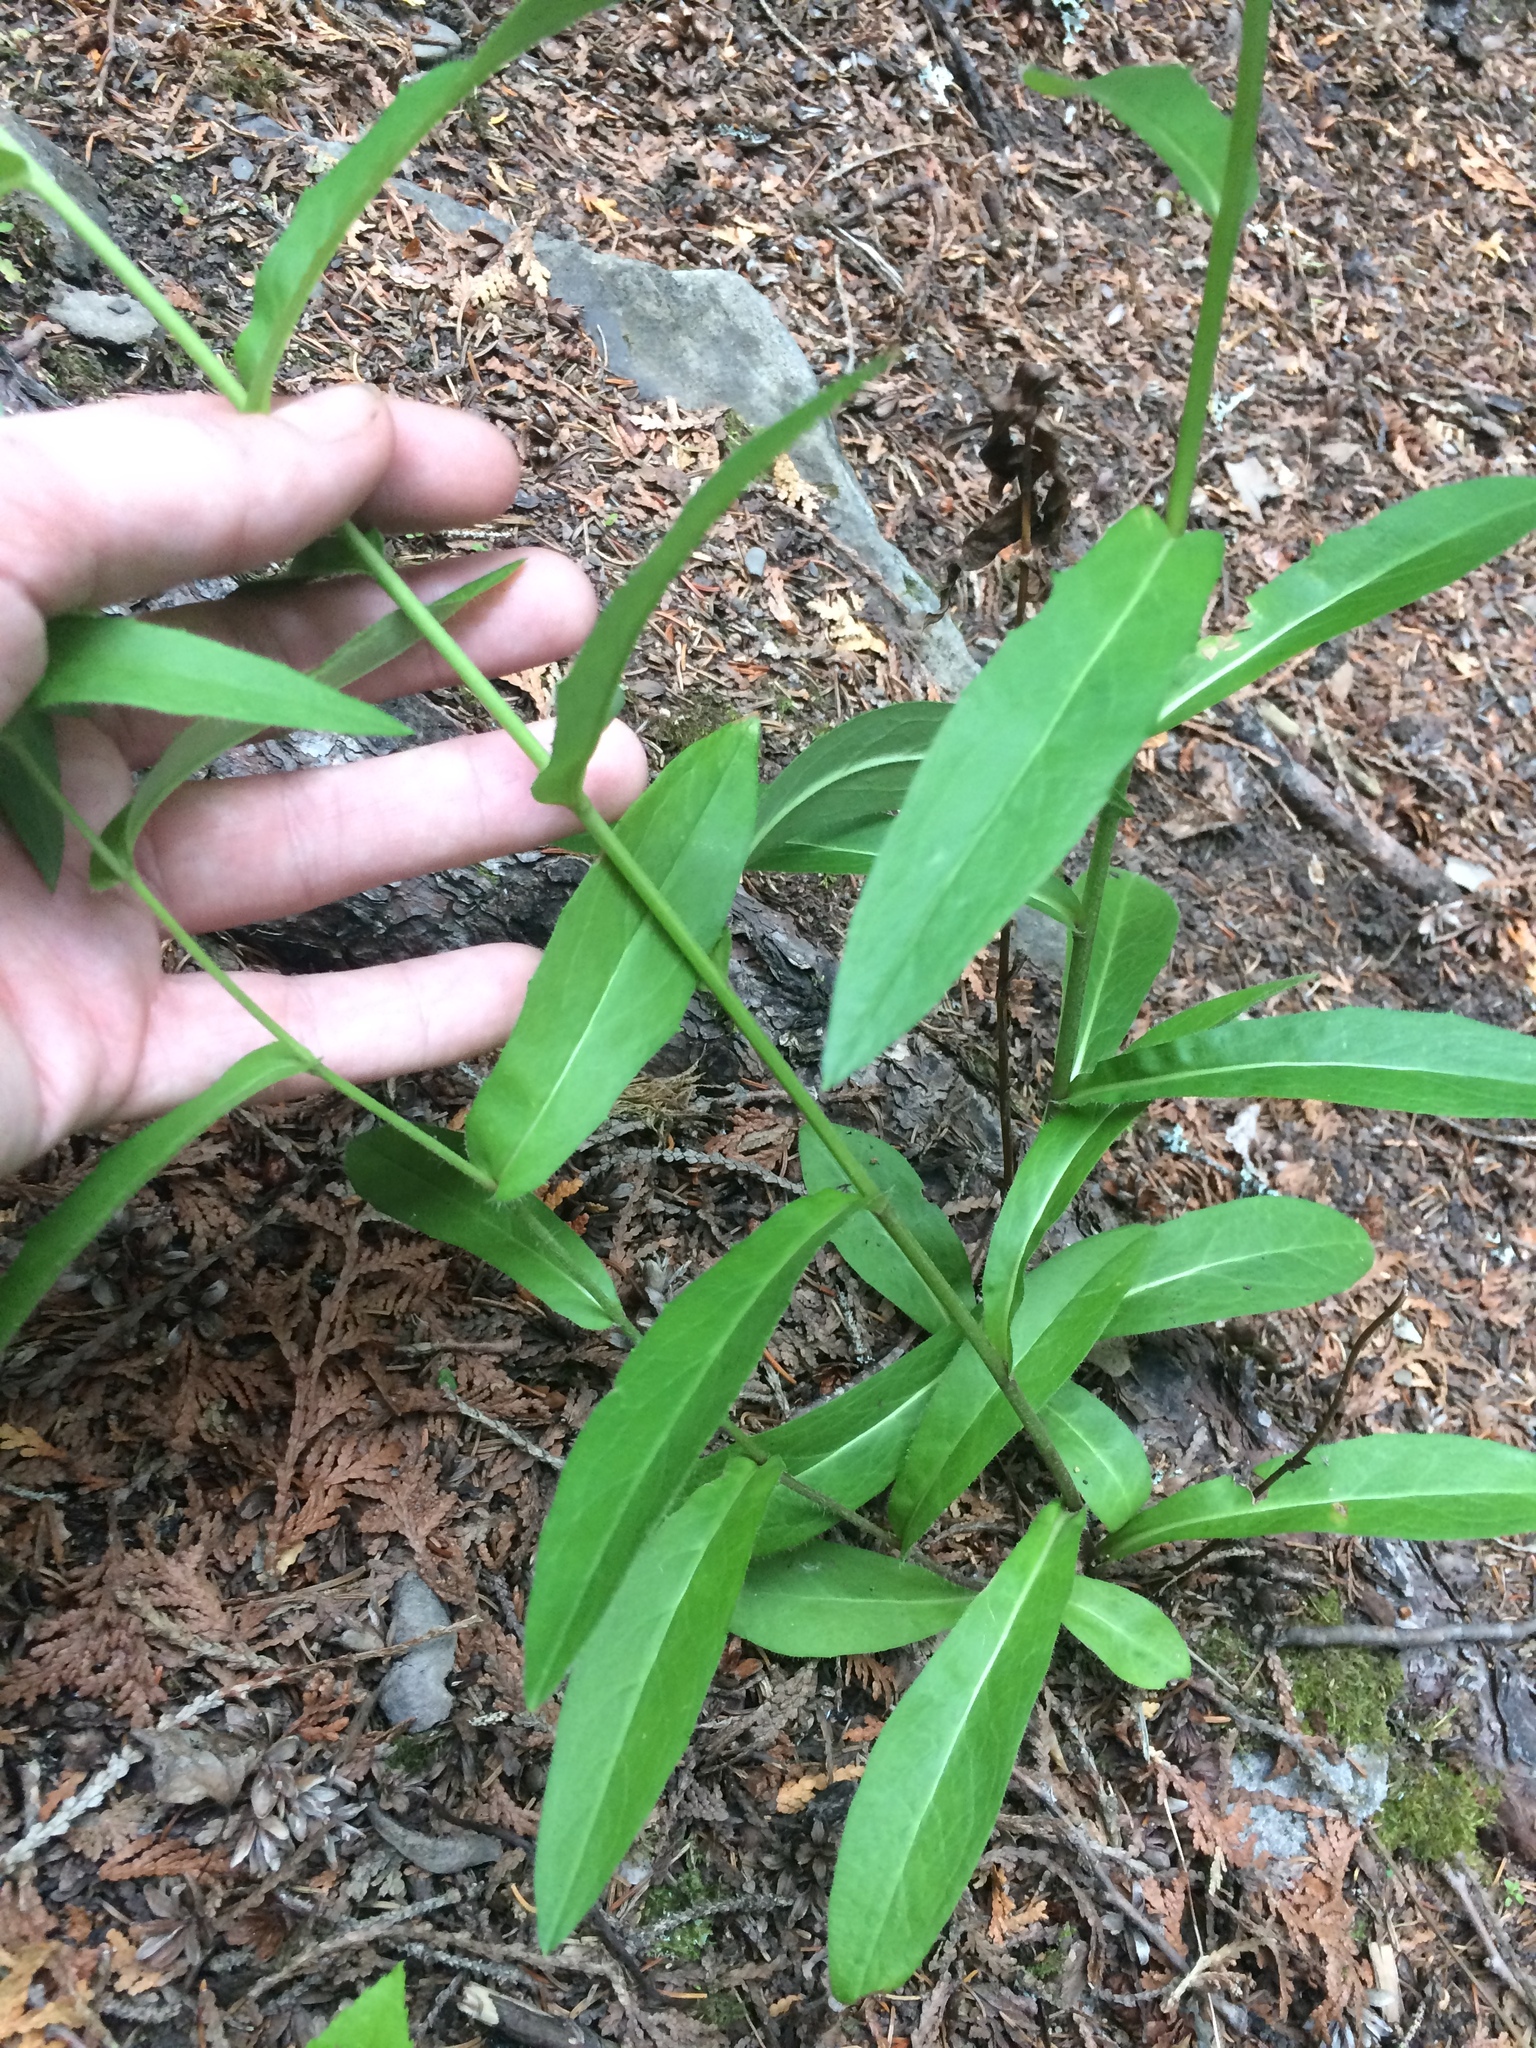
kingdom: Plantae
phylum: Tracheophyta
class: Magnoliopsida
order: Asterales
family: Asteraceae
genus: Hieracium
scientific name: Hieracium umbellatum
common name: Northern hawkweed
